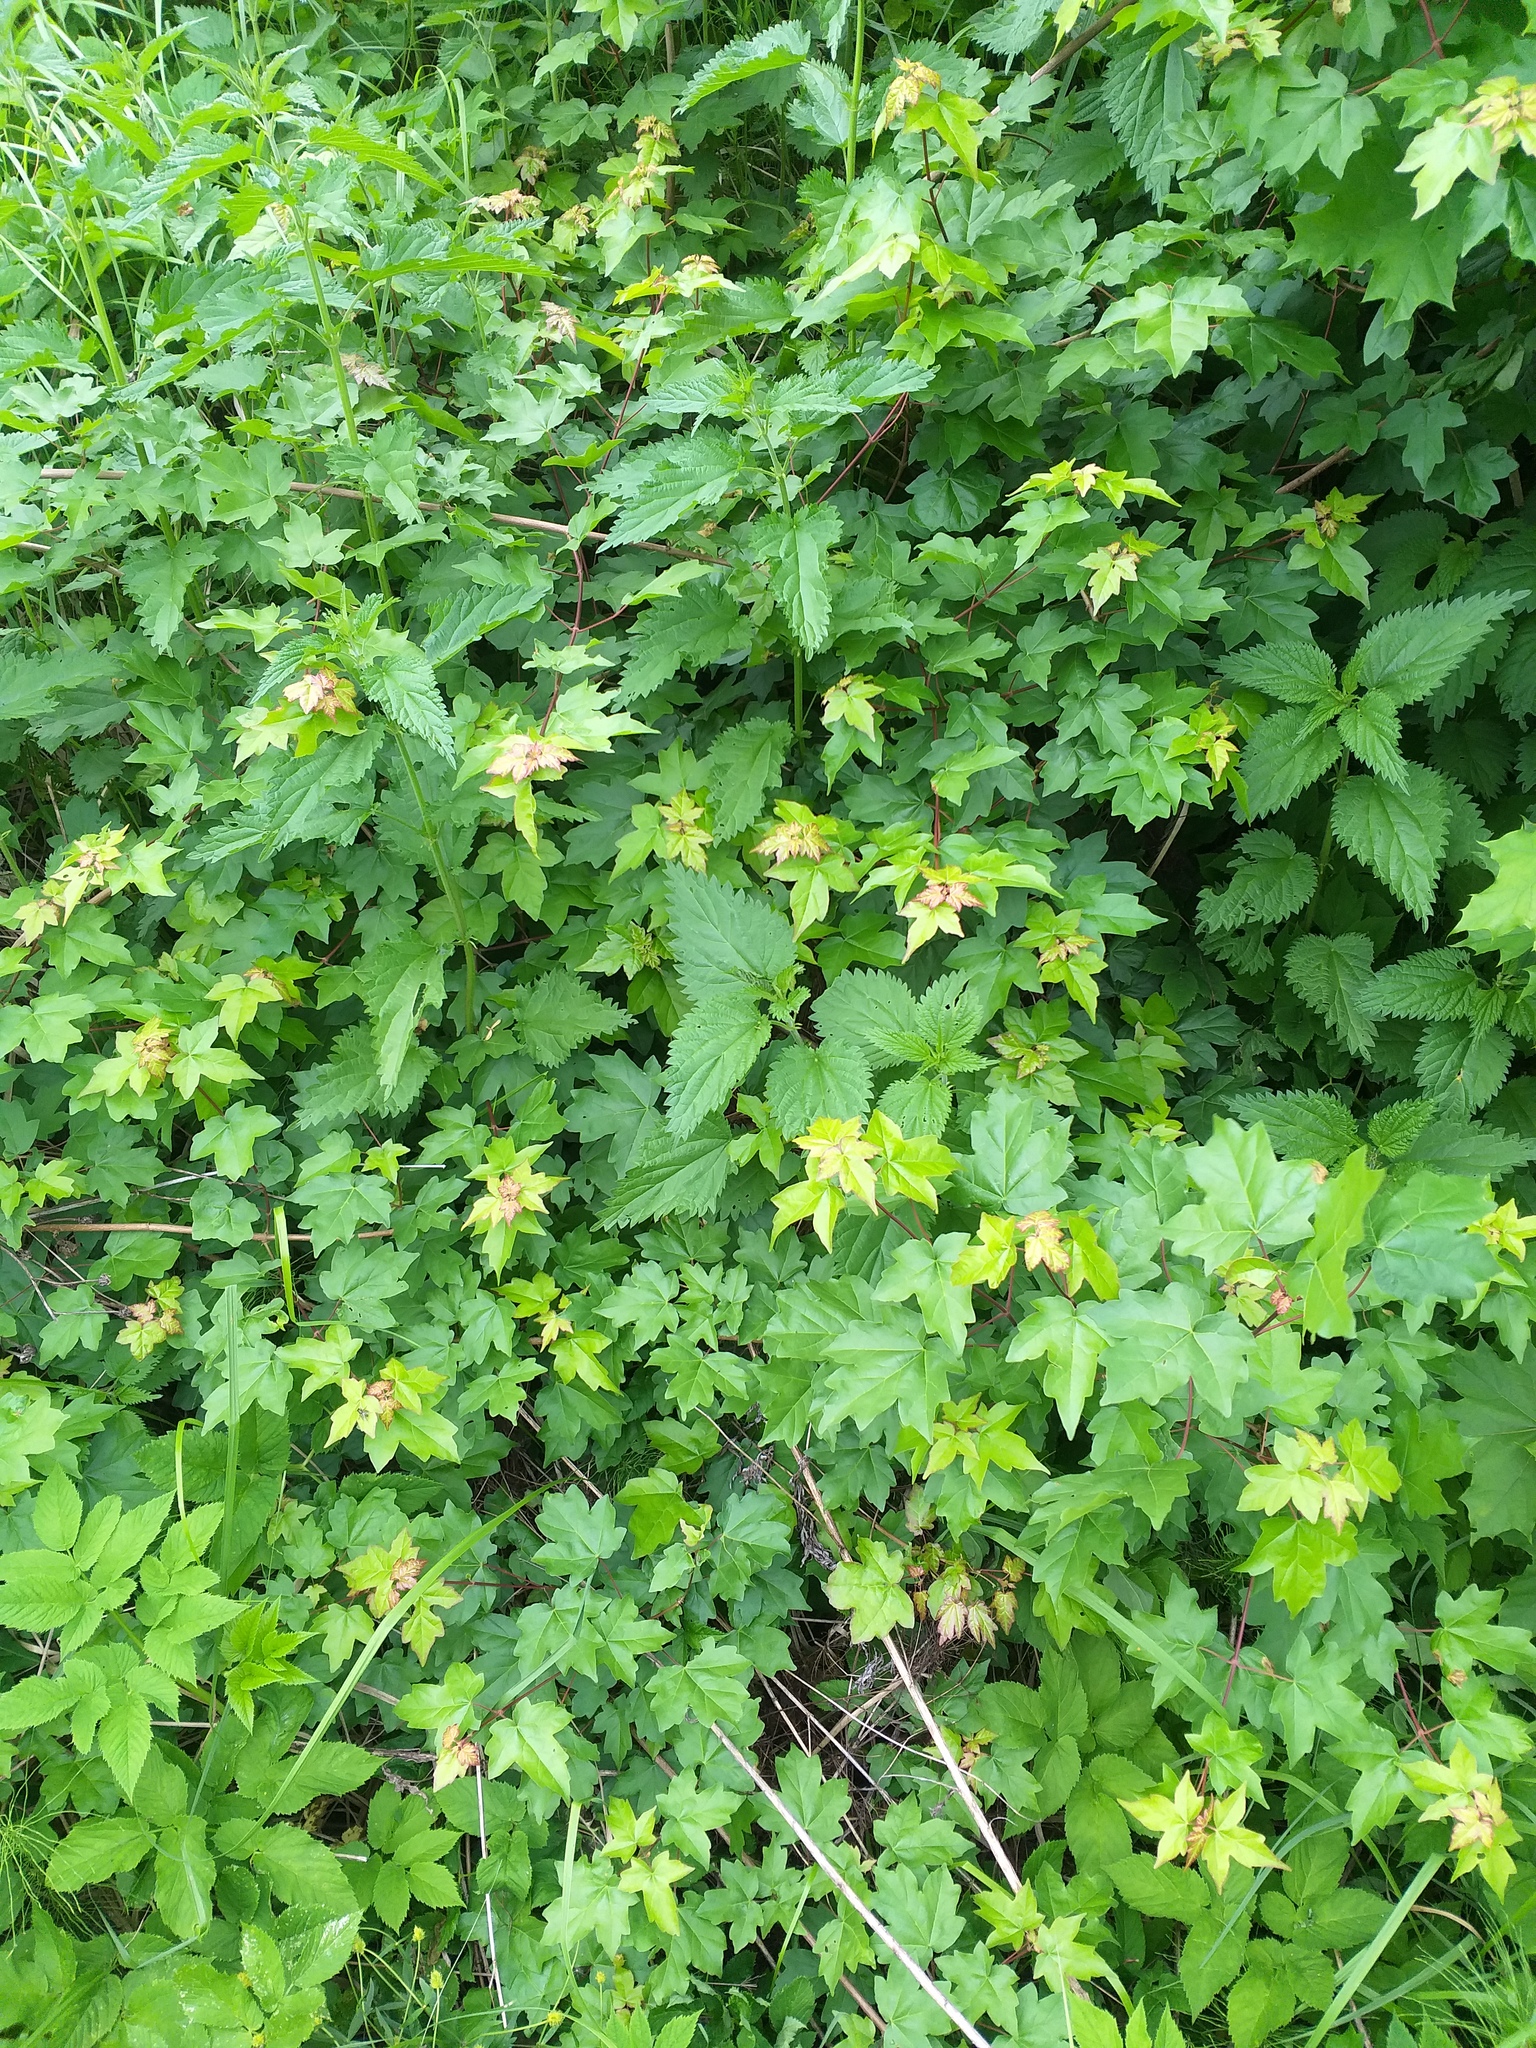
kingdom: Plantae
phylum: Tracheophyta
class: Magnoliopsida
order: Sapindales
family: Sapindaceae
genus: Acer
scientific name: Acer campestre
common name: Field maple
